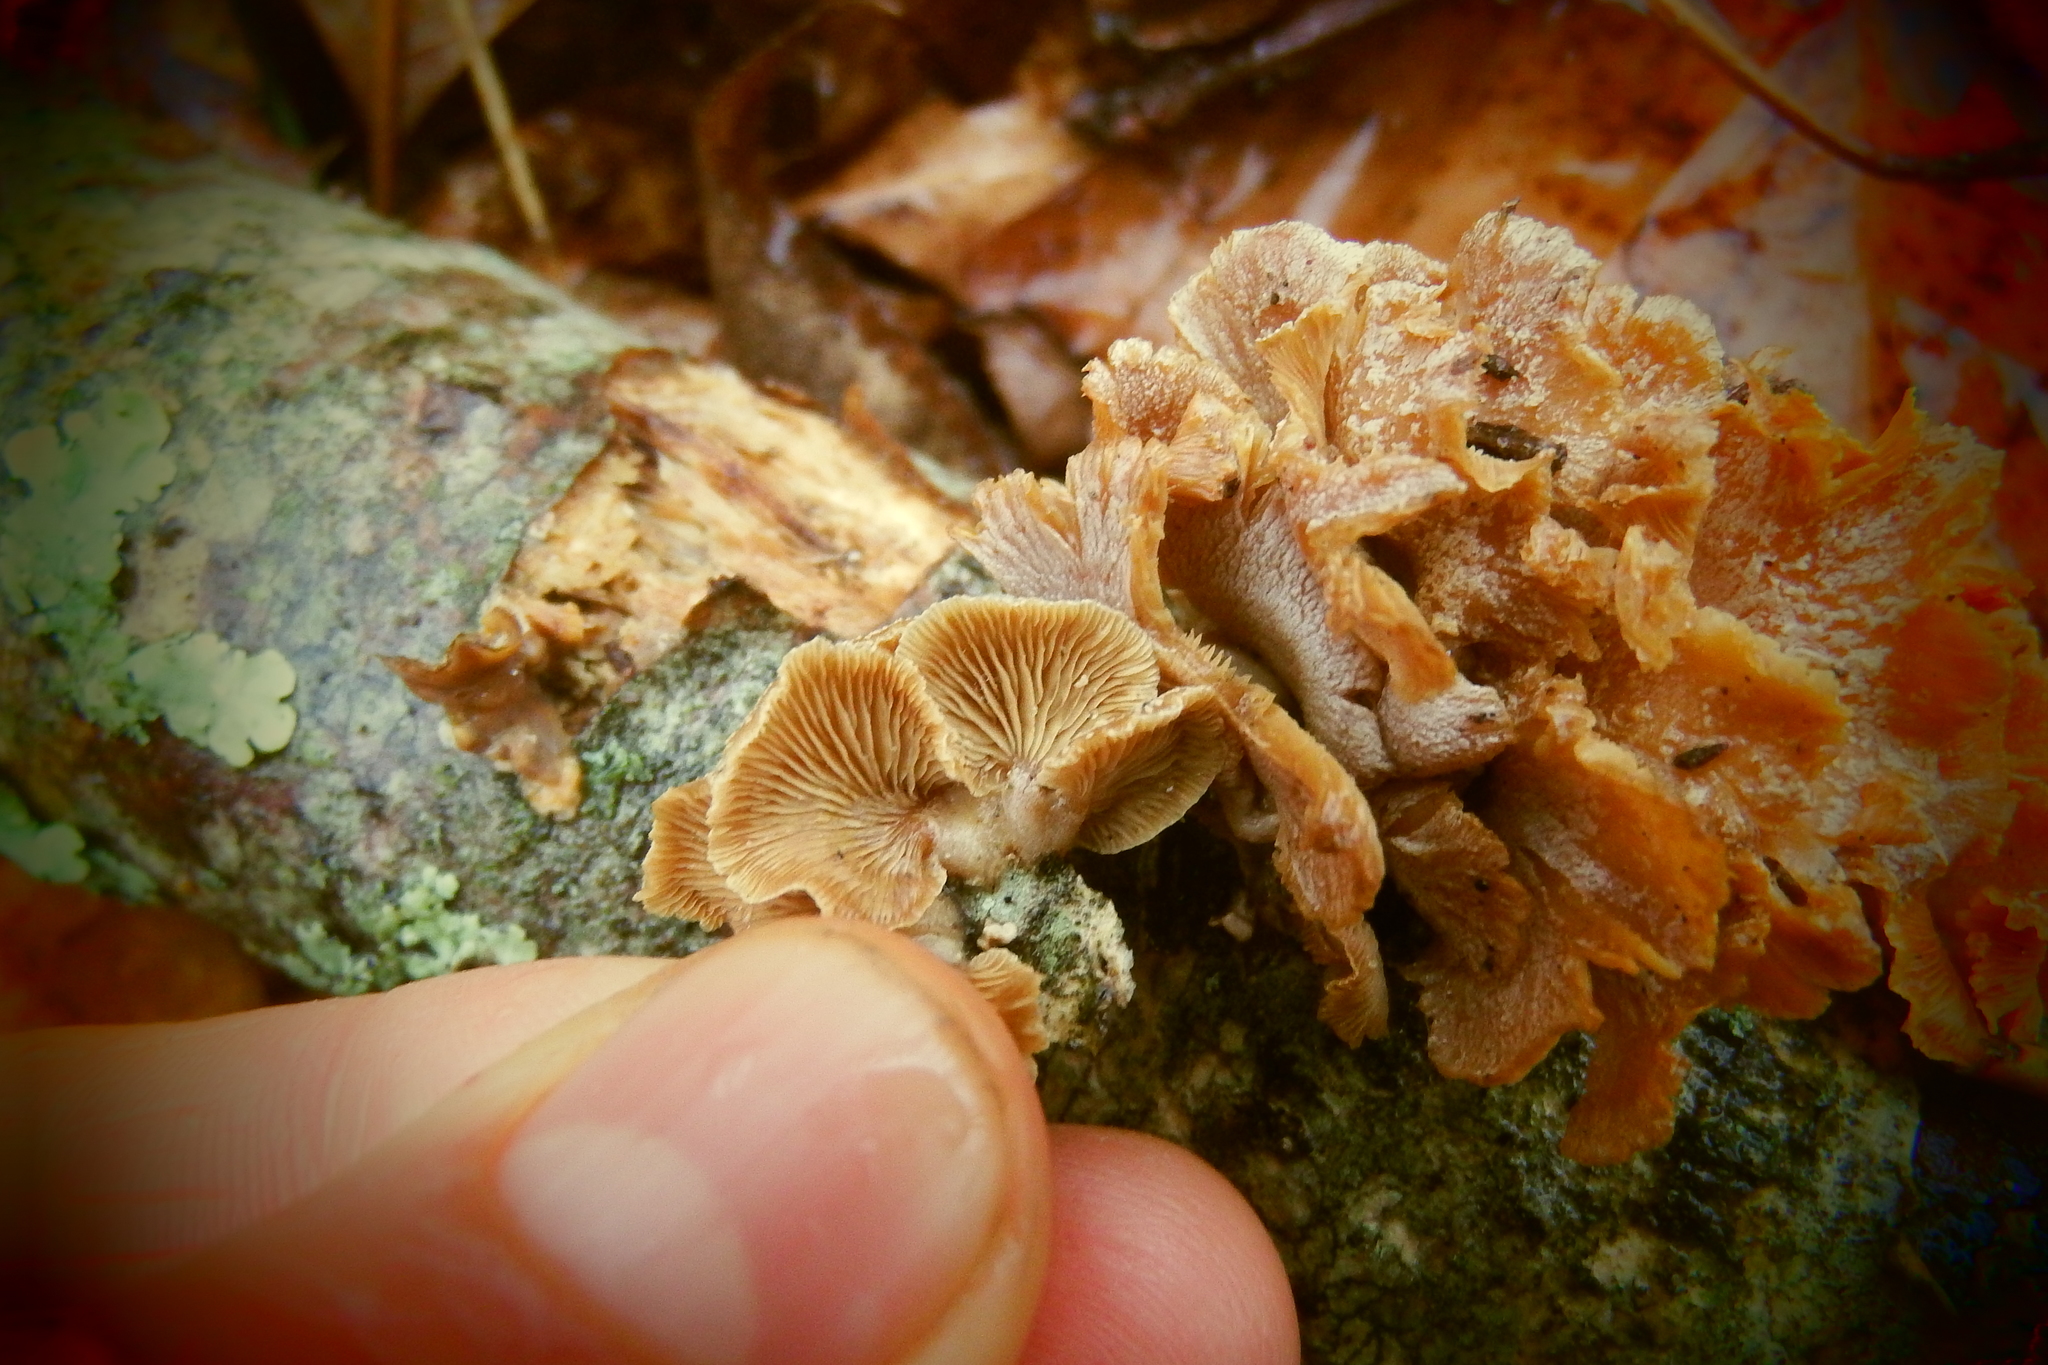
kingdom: Fungi
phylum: Basidiomycota
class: Agaricomycetes
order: Agaricales
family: Mycenaceae
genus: Panellus
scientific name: Panellus stipticus
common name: Bitter oysterling
